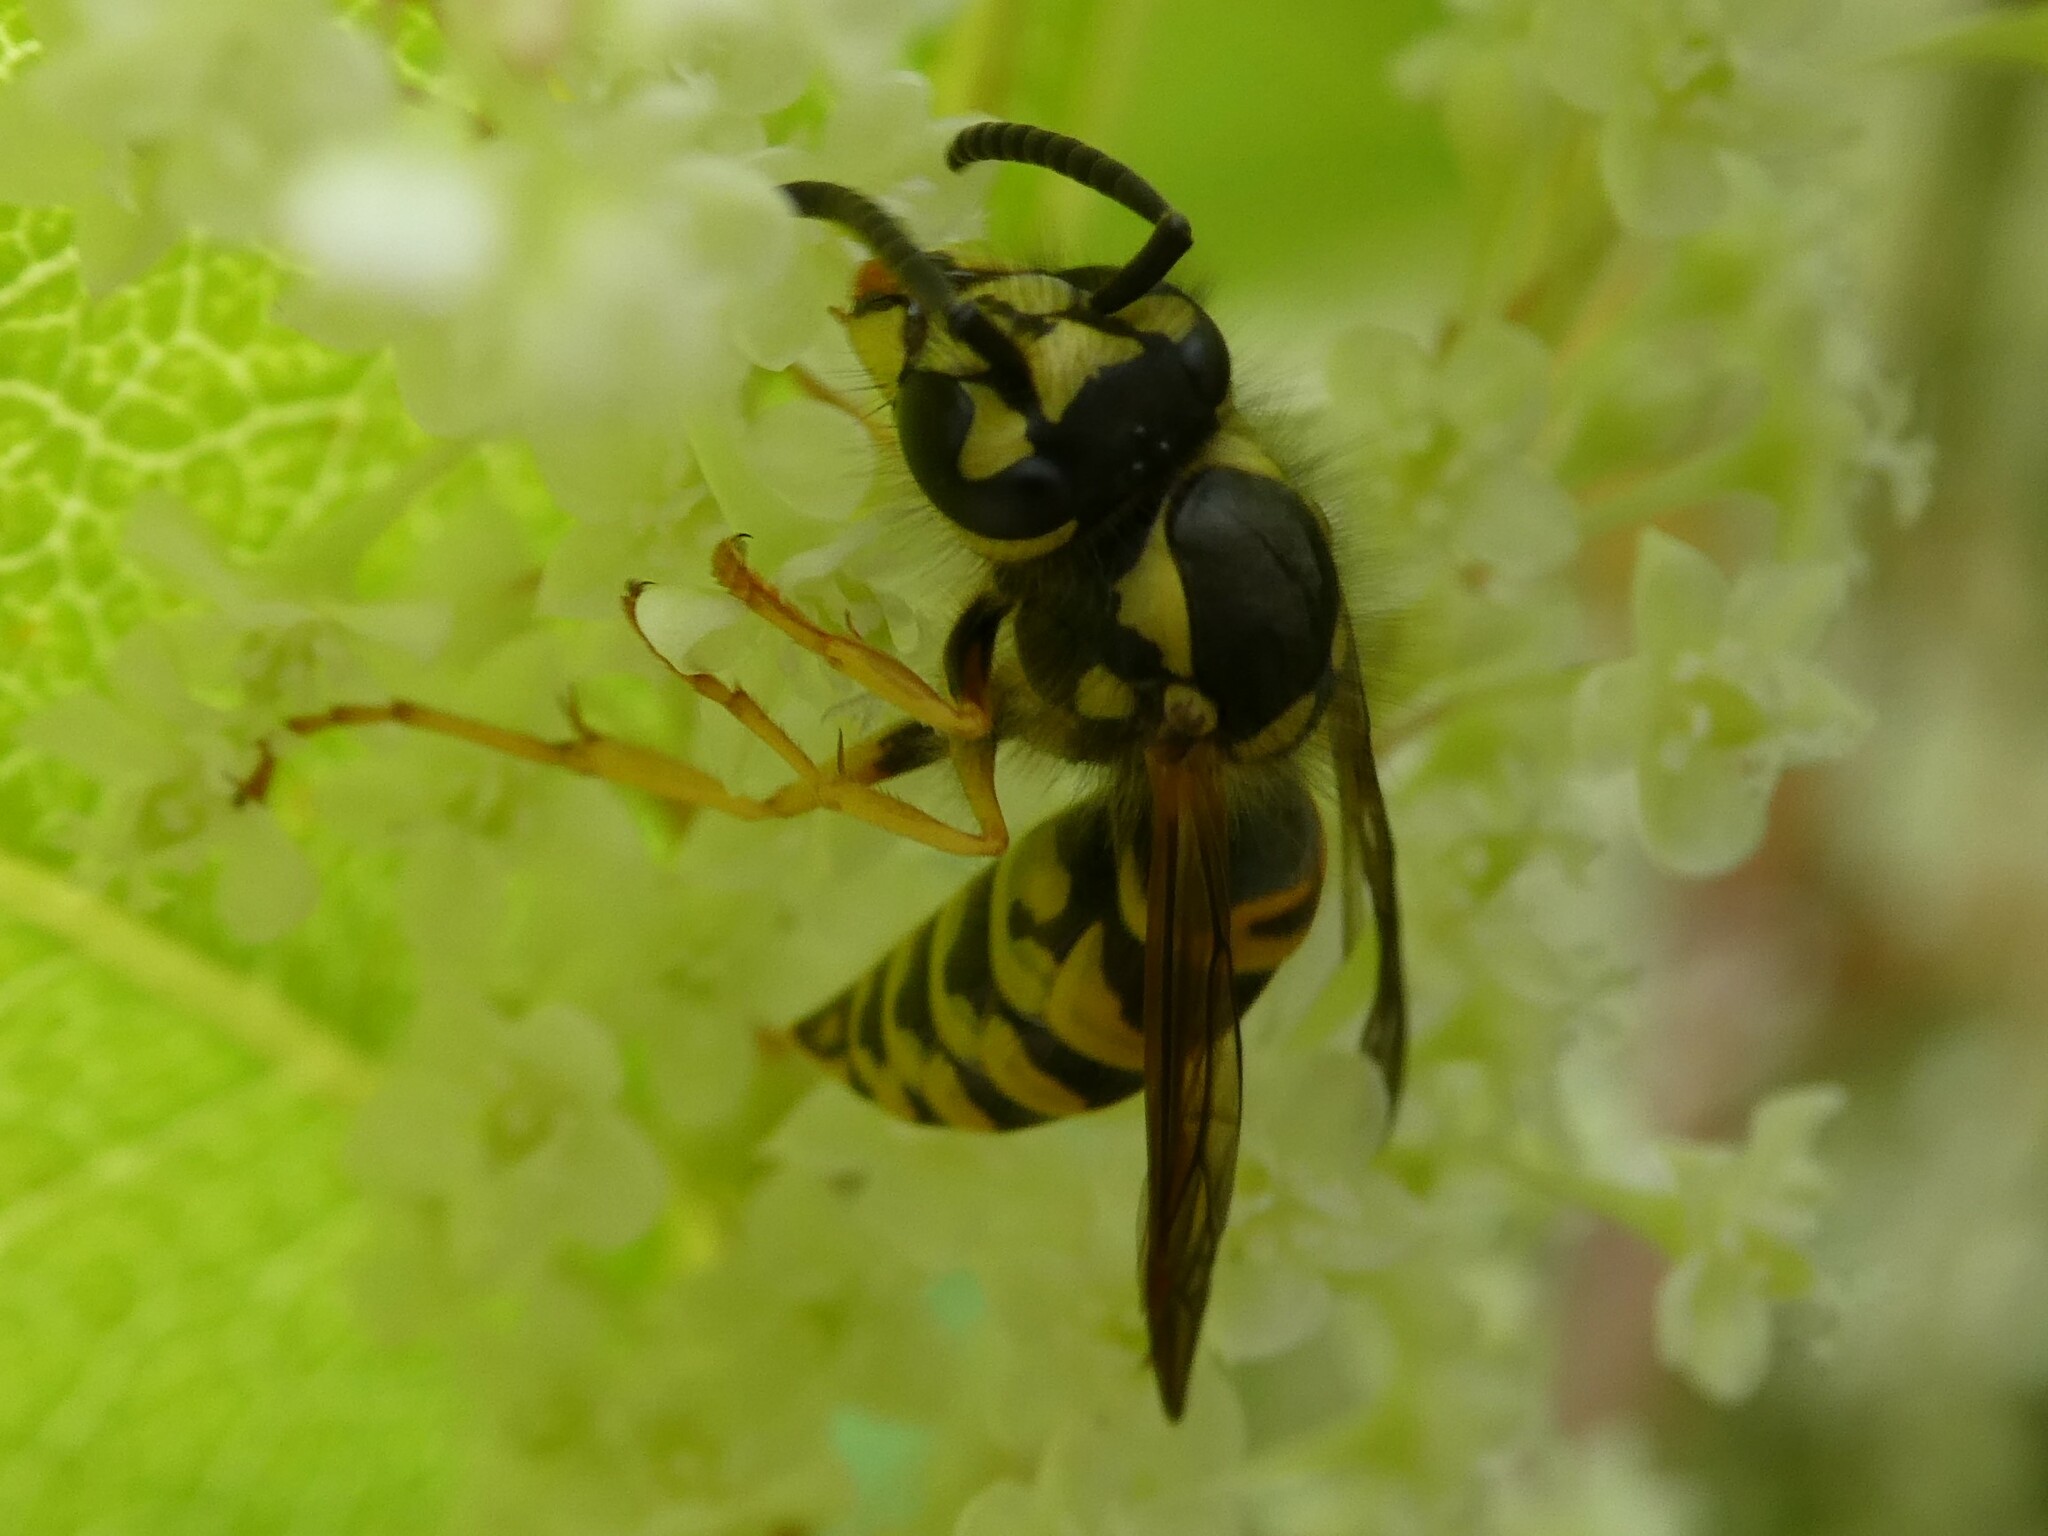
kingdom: Animalia
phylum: Arthropoda
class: Insecta
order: Hymenoptera
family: Vespidae
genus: Vespula
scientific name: Vespula maculifrons
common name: Eastern yellowjacket
